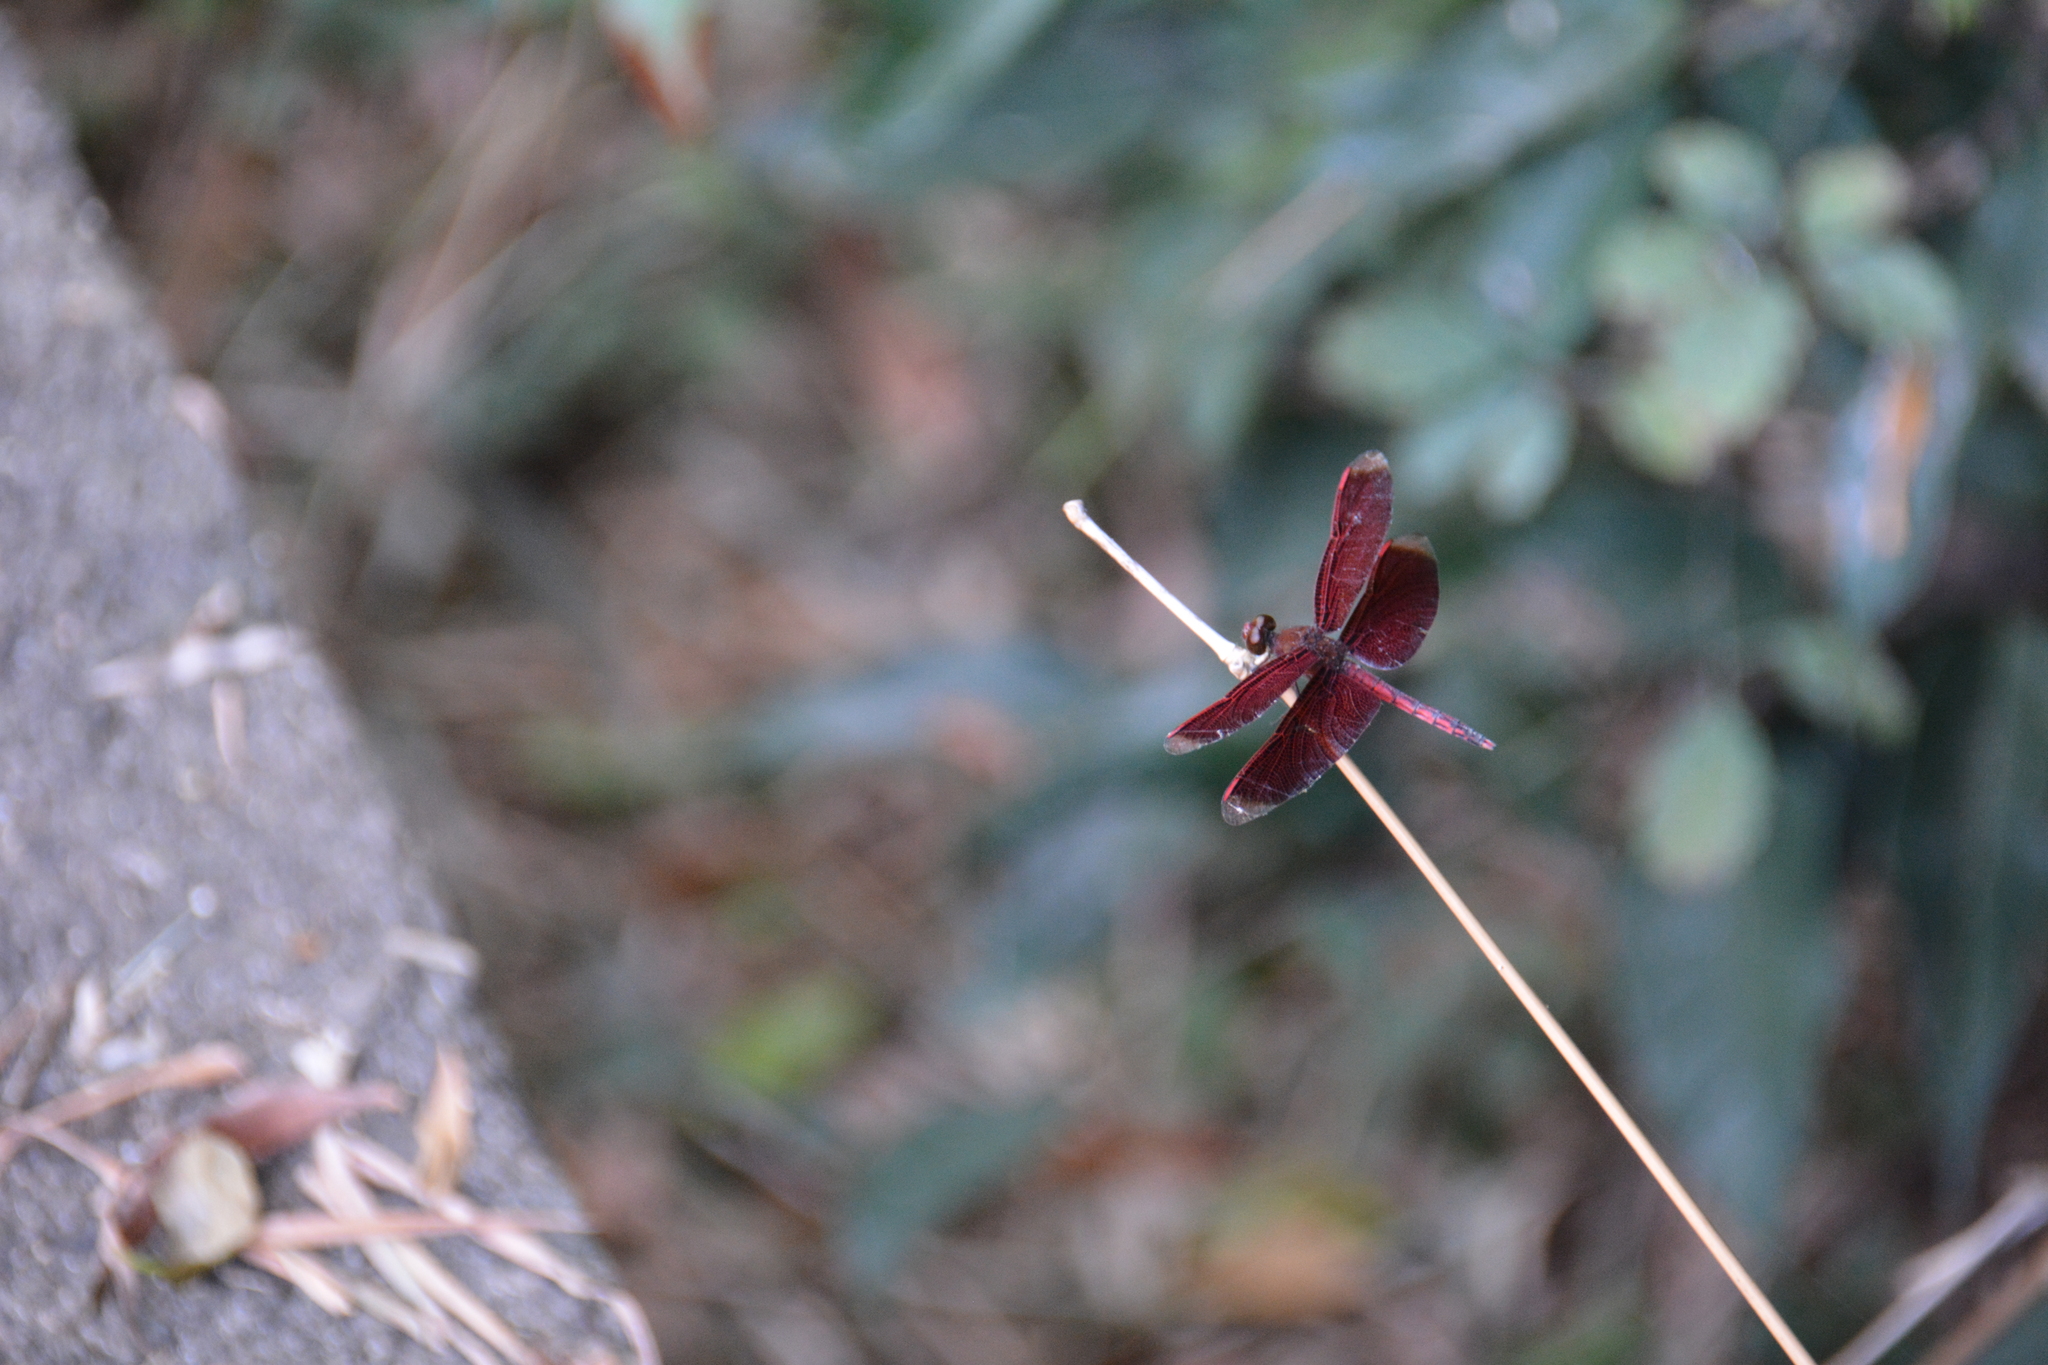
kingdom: Animalia
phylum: Arthropoda
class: Insecta
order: Odonata
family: Libellulidae
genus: Neurothemis
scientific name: Neurothemis taiwanensis
